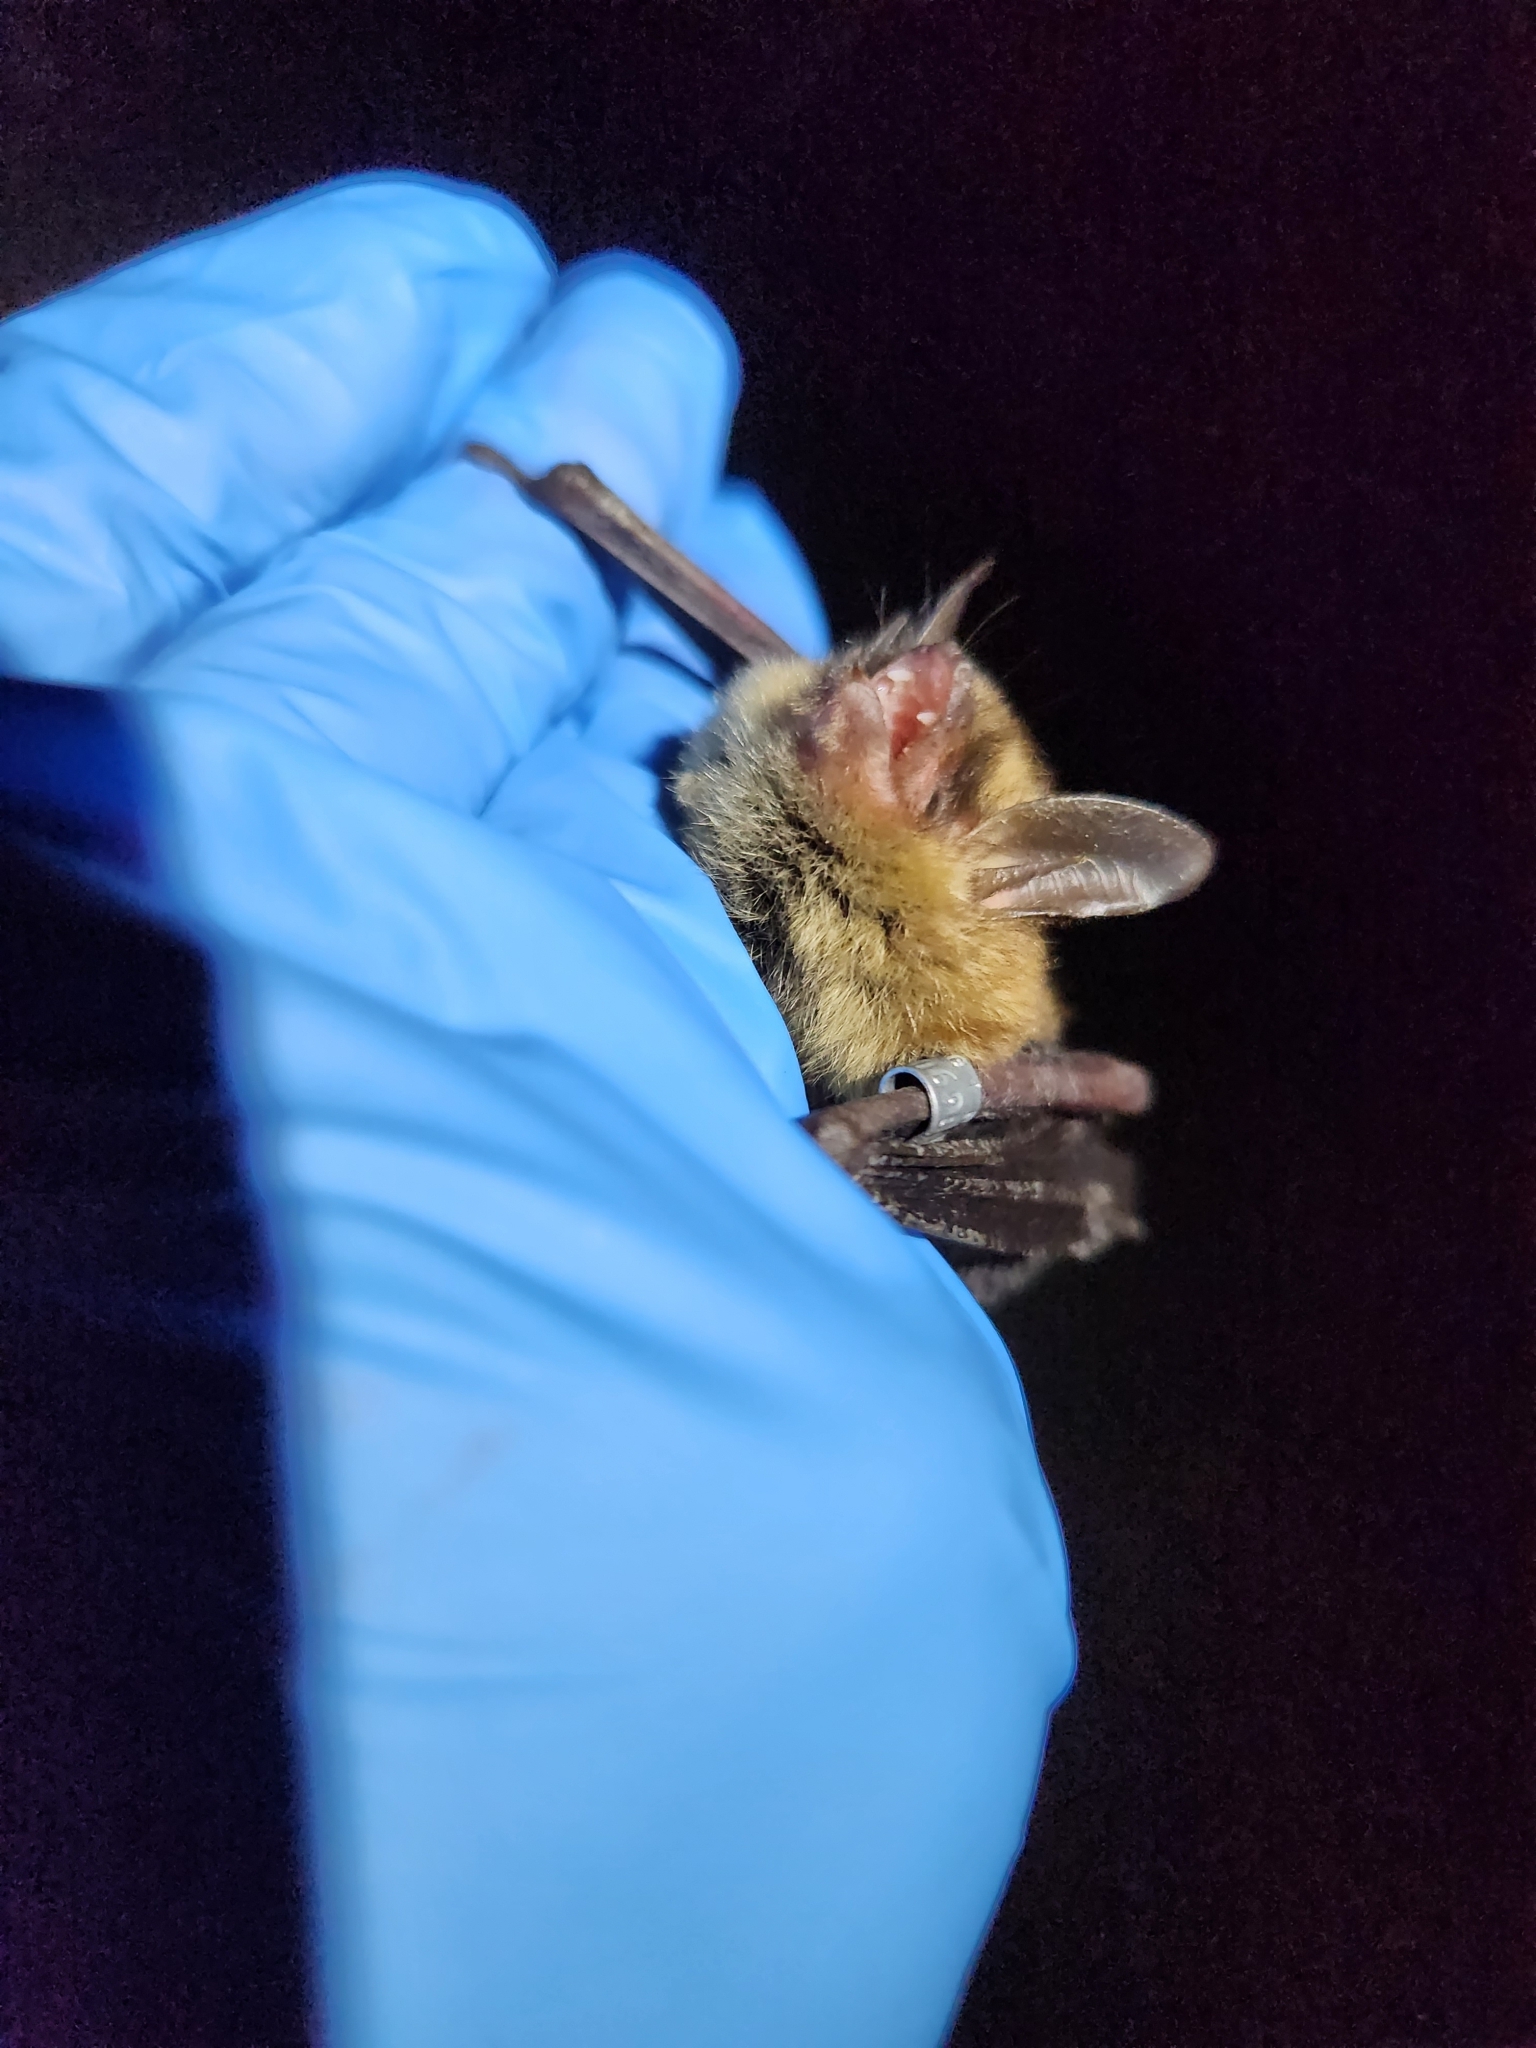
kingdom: Animalia
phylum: Chordata
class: Mammalia
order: Chiroptera
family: Vespertilionidae
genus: Myotis
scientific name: Myotis septentrionalis
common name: Northern myotis
